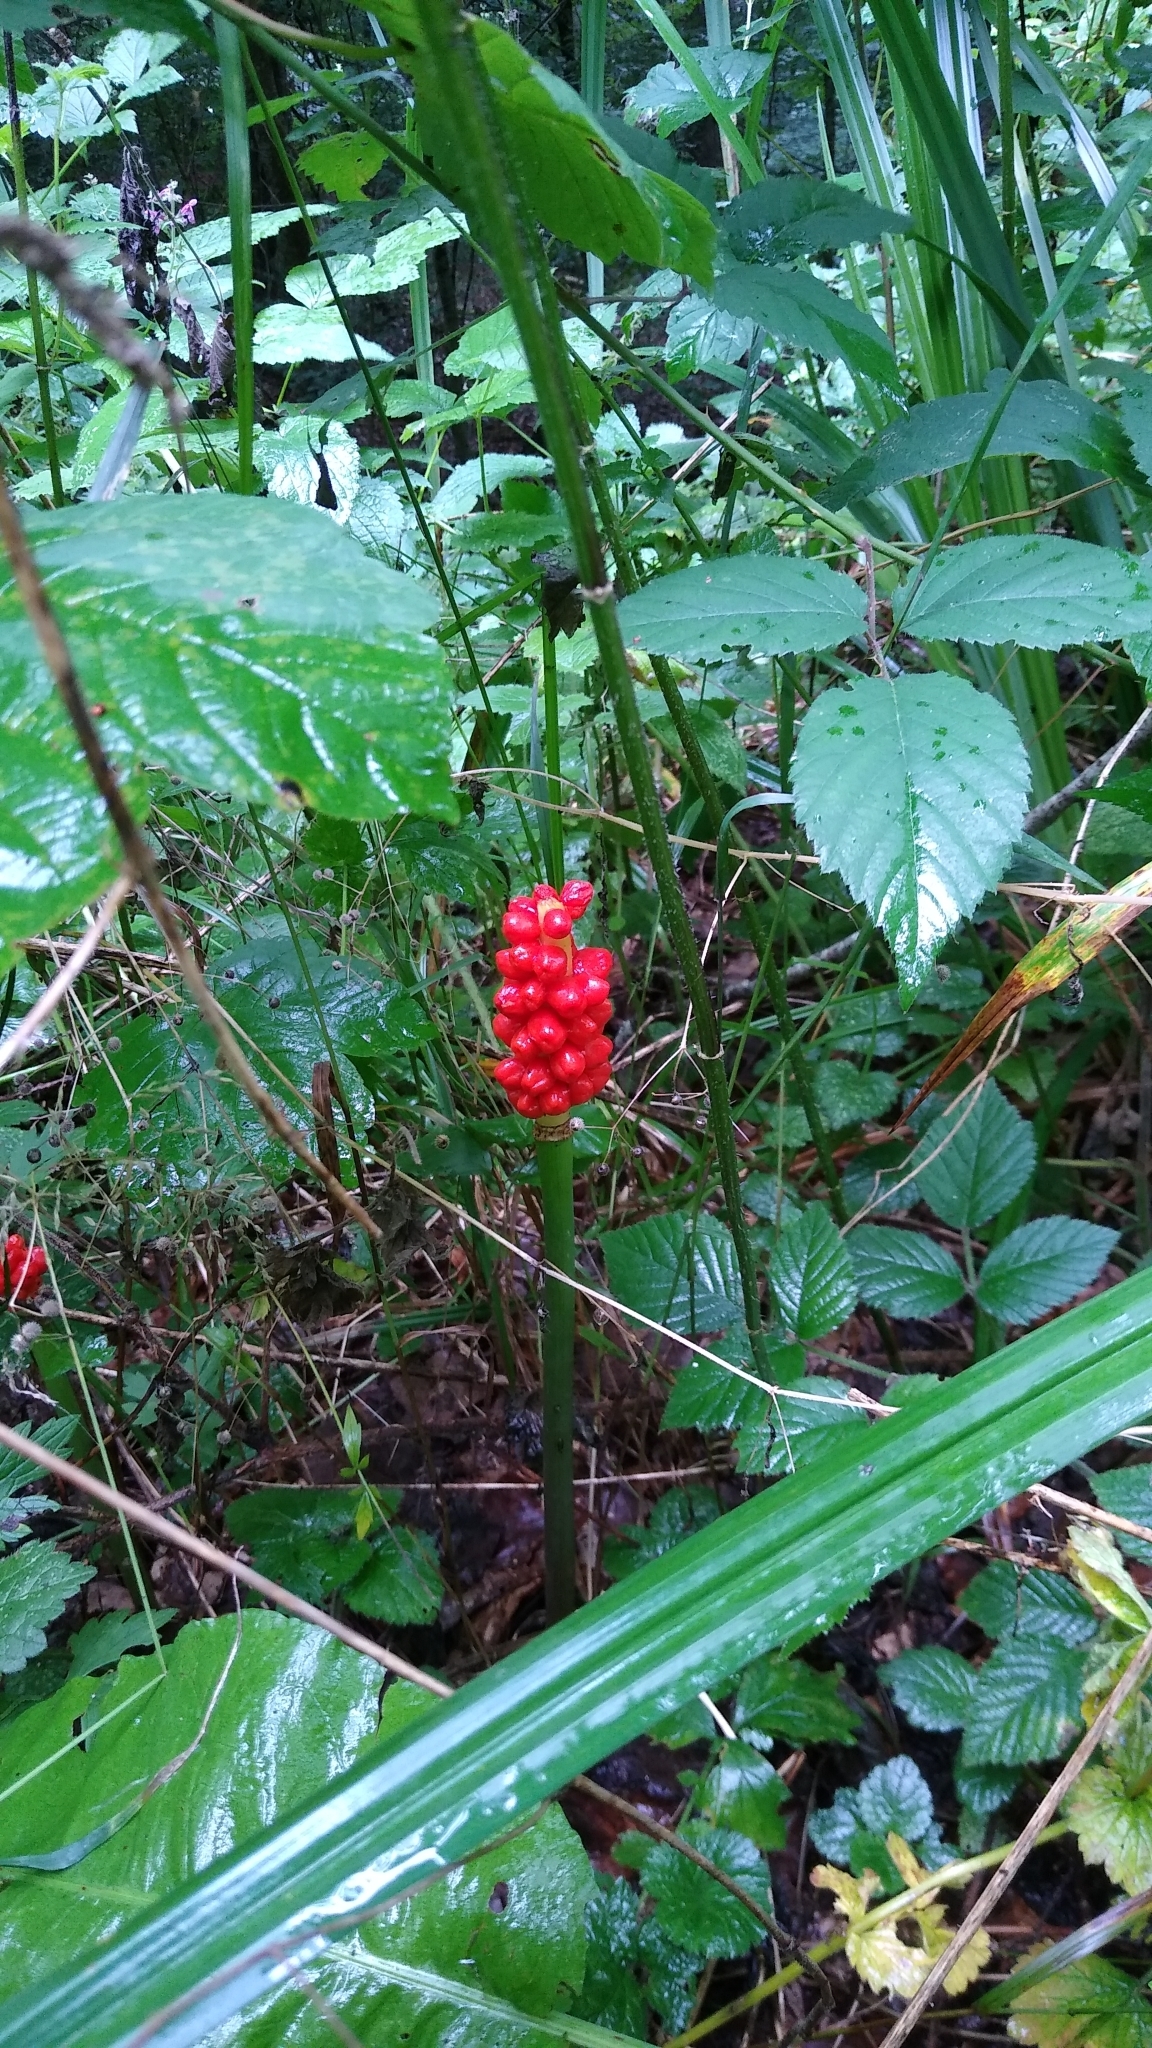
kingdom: Plantae
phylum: Tracheophyta
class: Liliopsida
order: Alismatales
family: Araceae
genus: Arum
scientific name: Arum maculatum
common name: Lords-and-ladies
